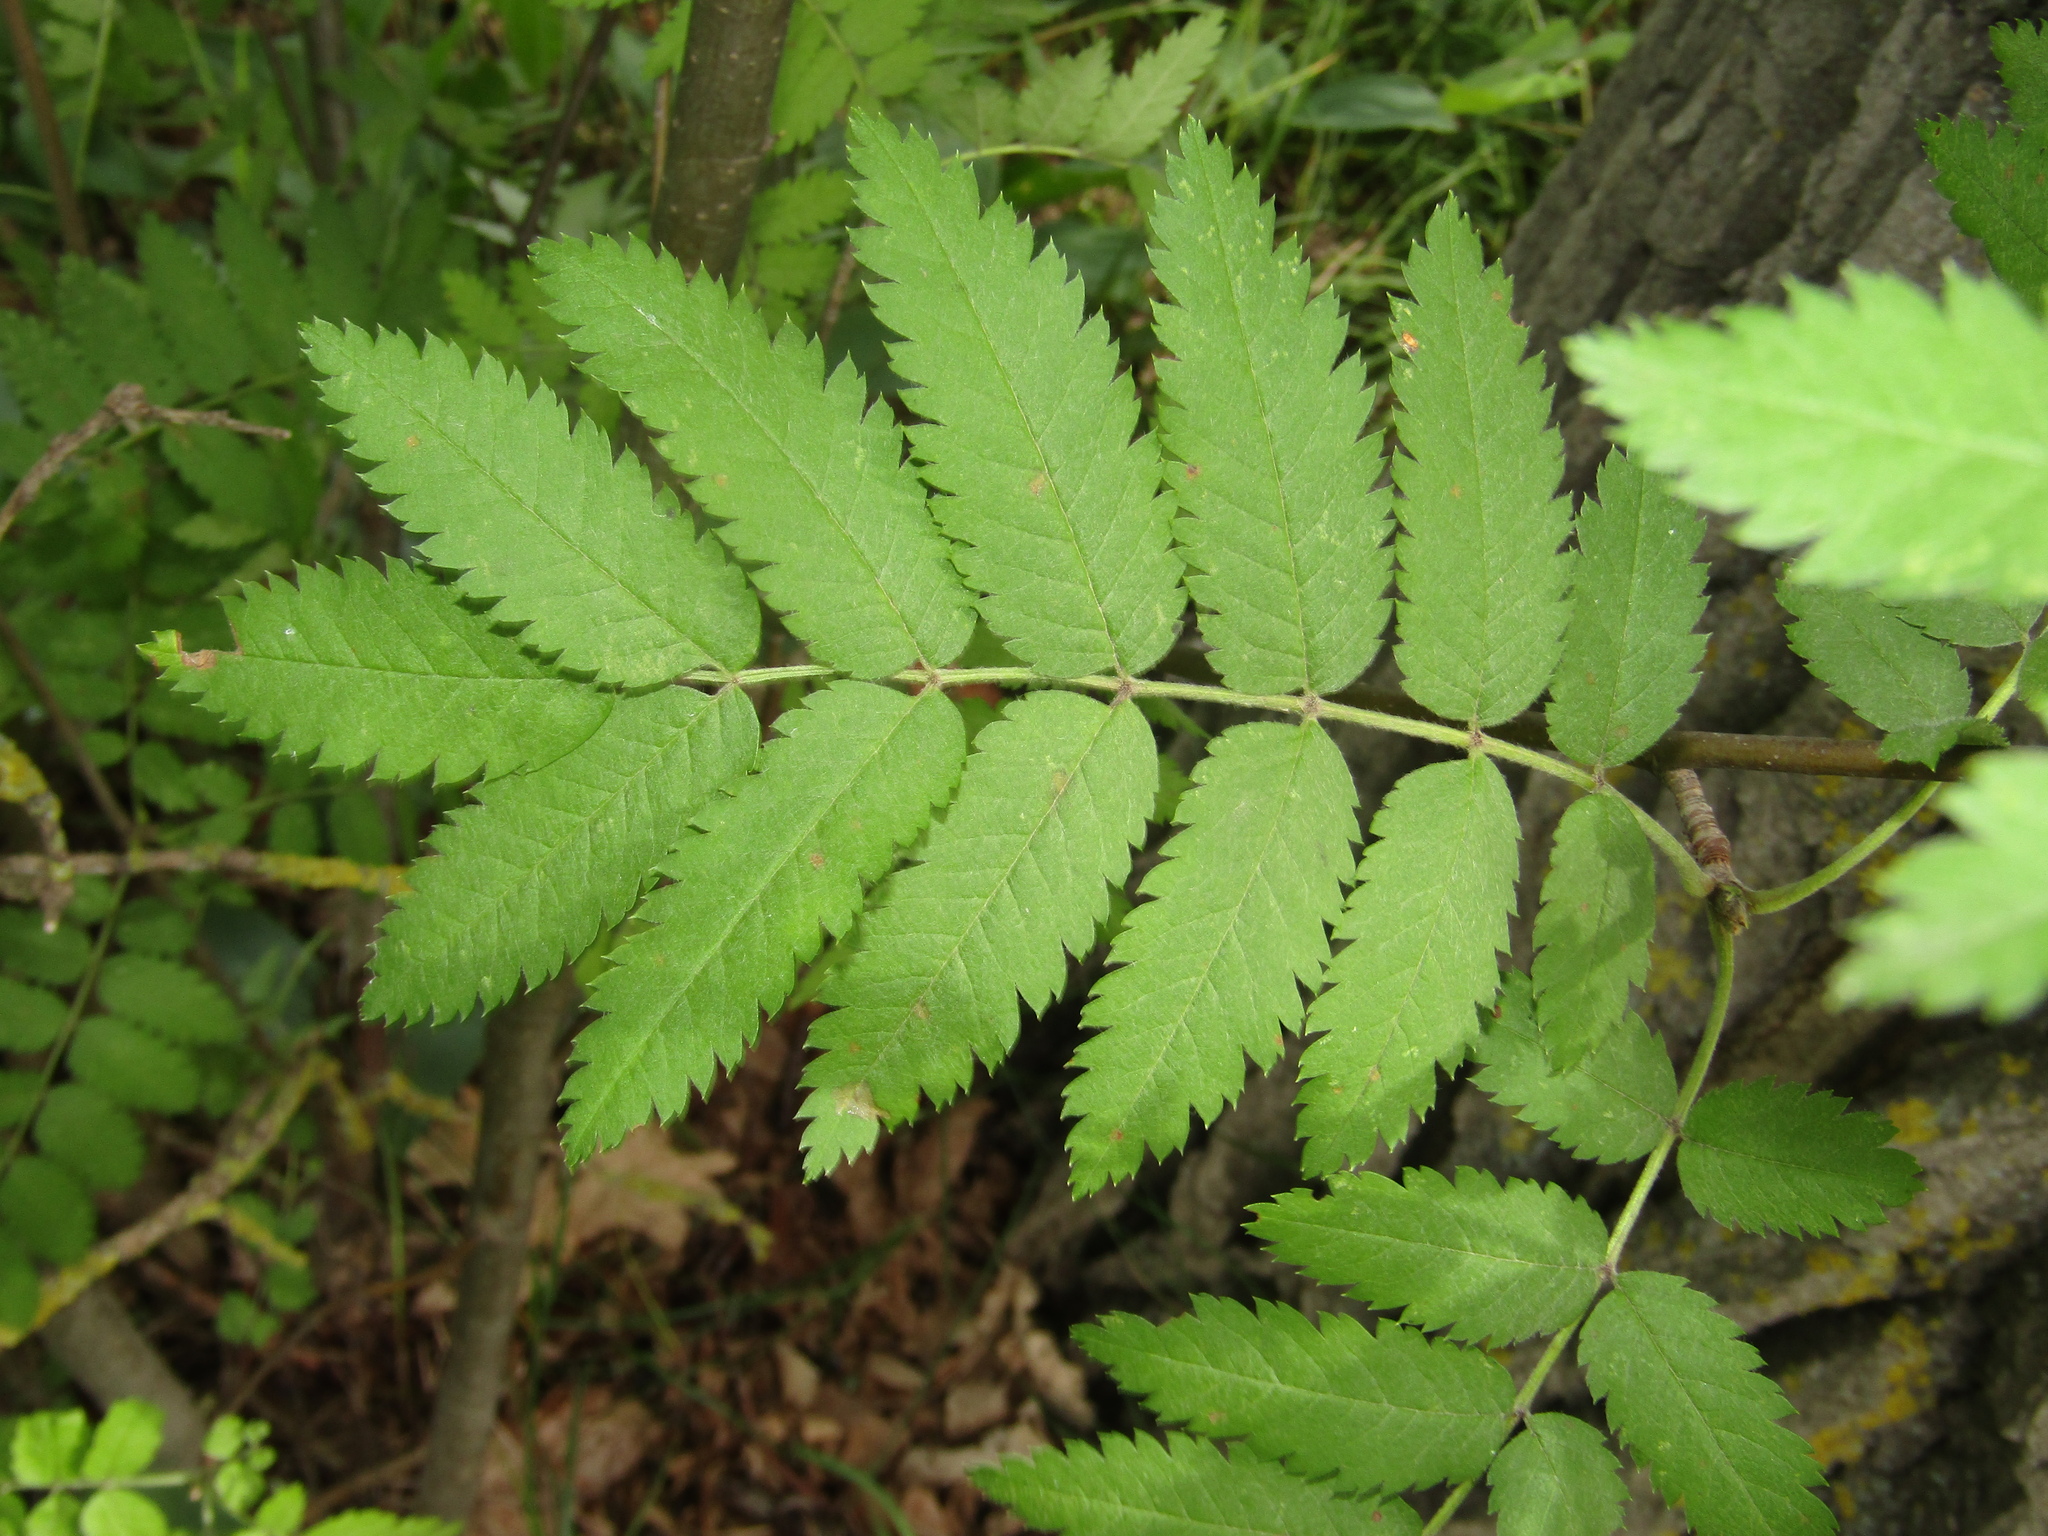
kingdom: Plantae
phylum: Tracheophyta
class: Magnoliopsida
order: Rosales
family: Rosaceae
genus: Sorbus
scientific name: Sorbus aucuparia
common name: Rowan
